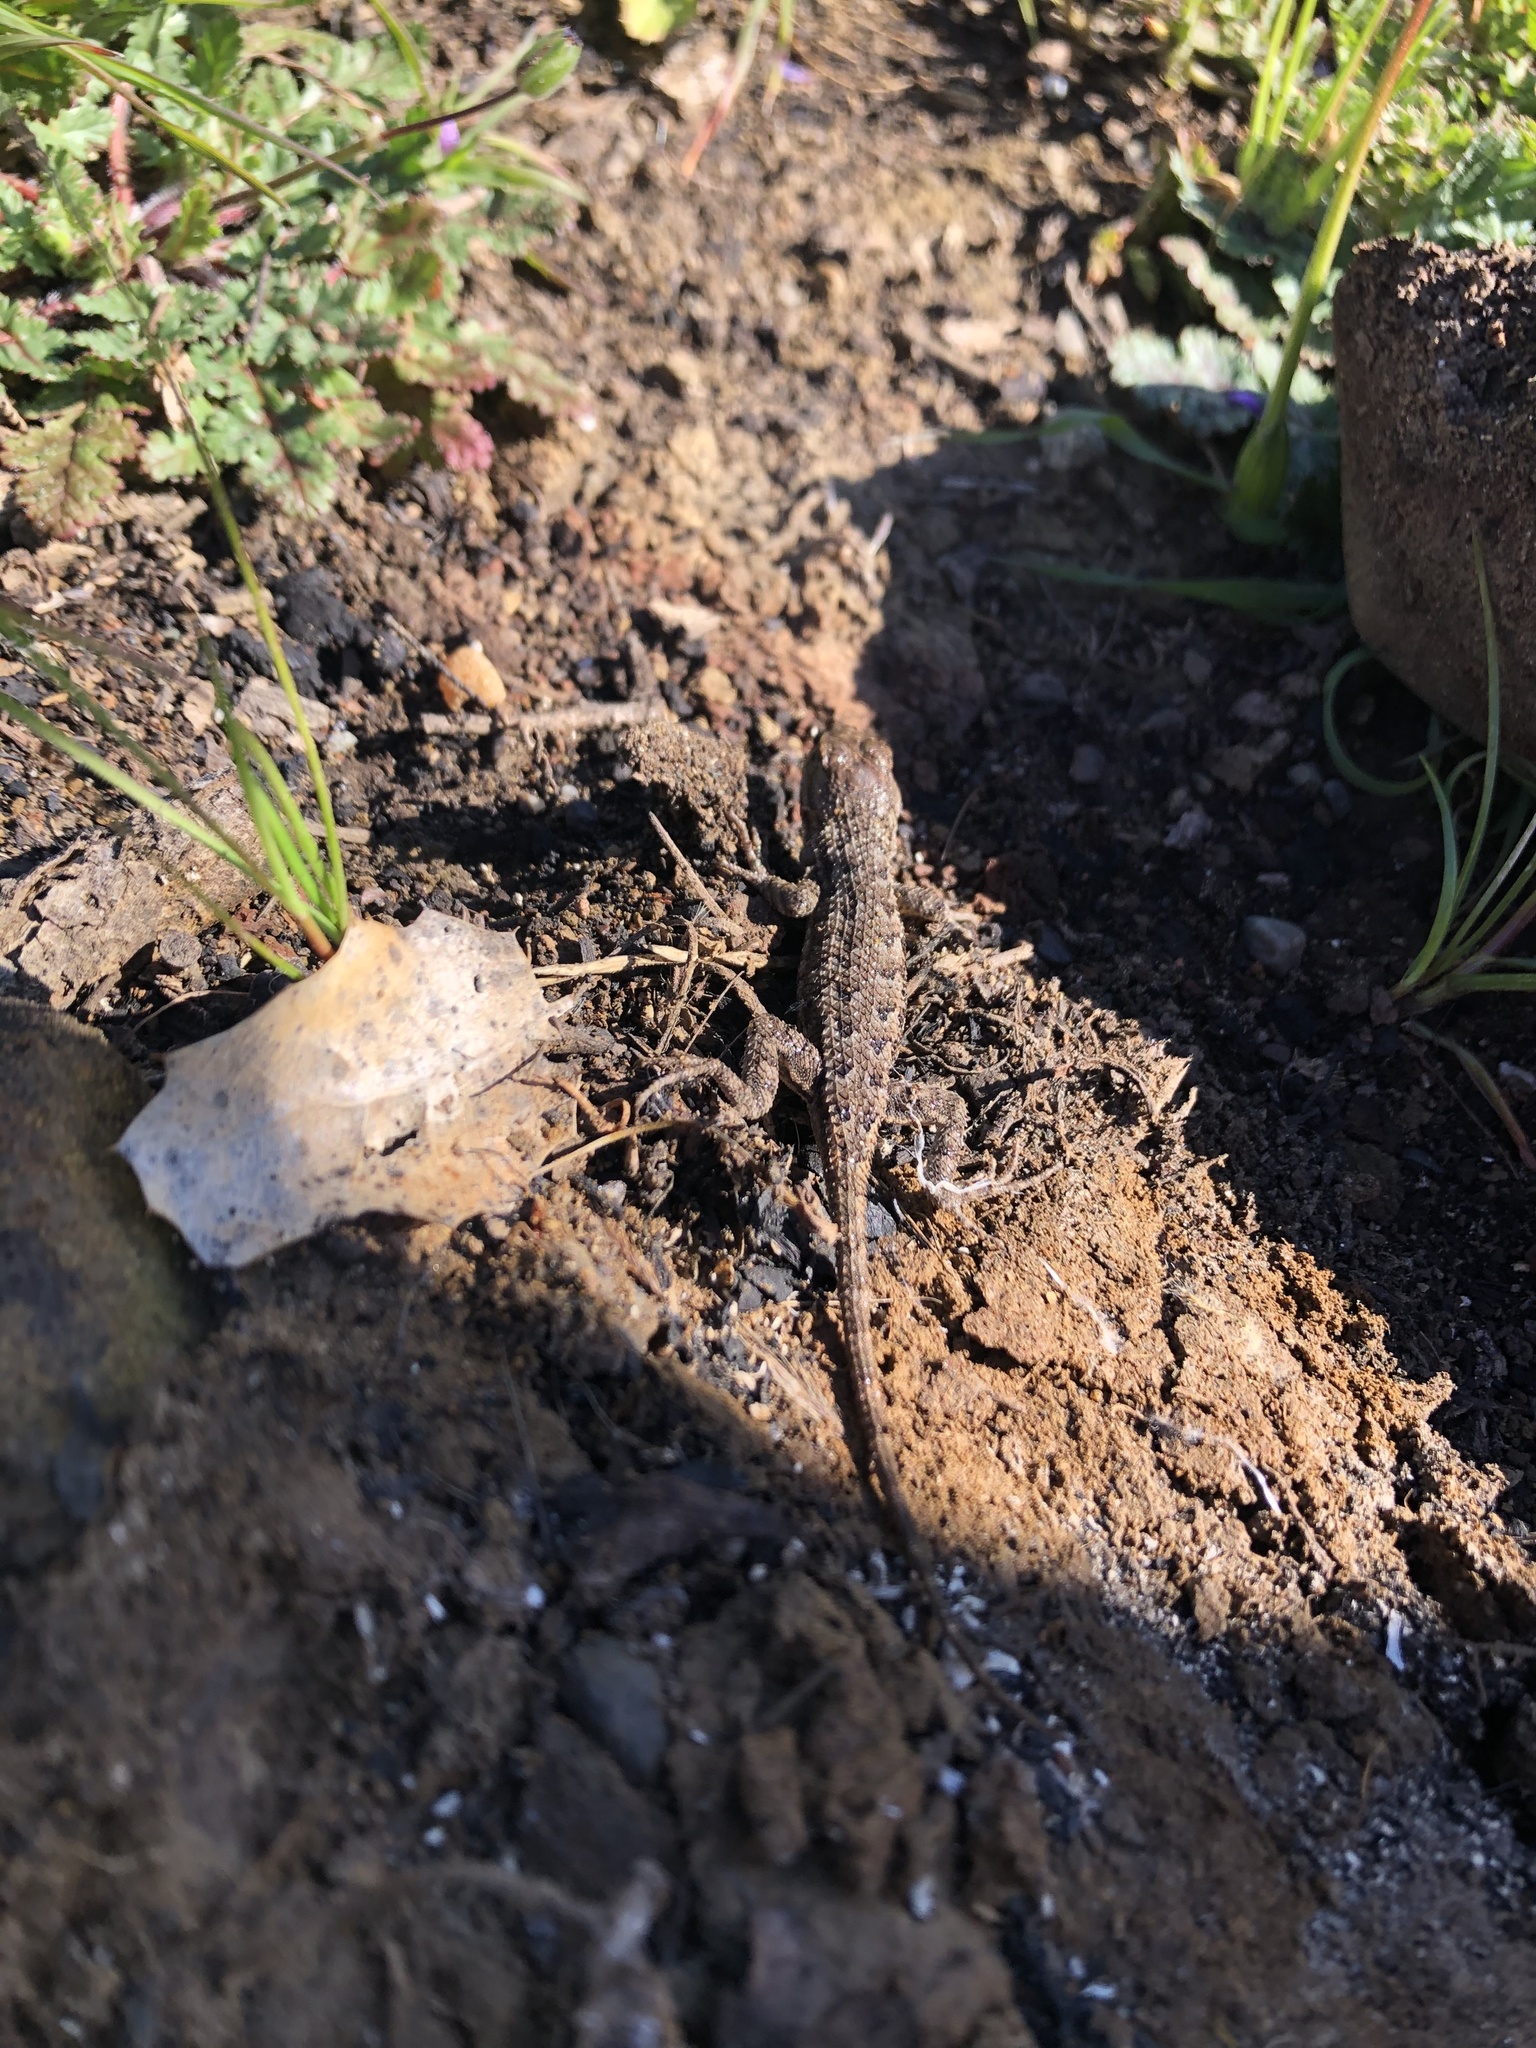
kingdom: Animalia
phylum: Chordata
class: Squamata
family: Phrynosomatidae
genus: Sceloporus
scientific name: Sceloporus occidentalis
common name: Western fence lizard
